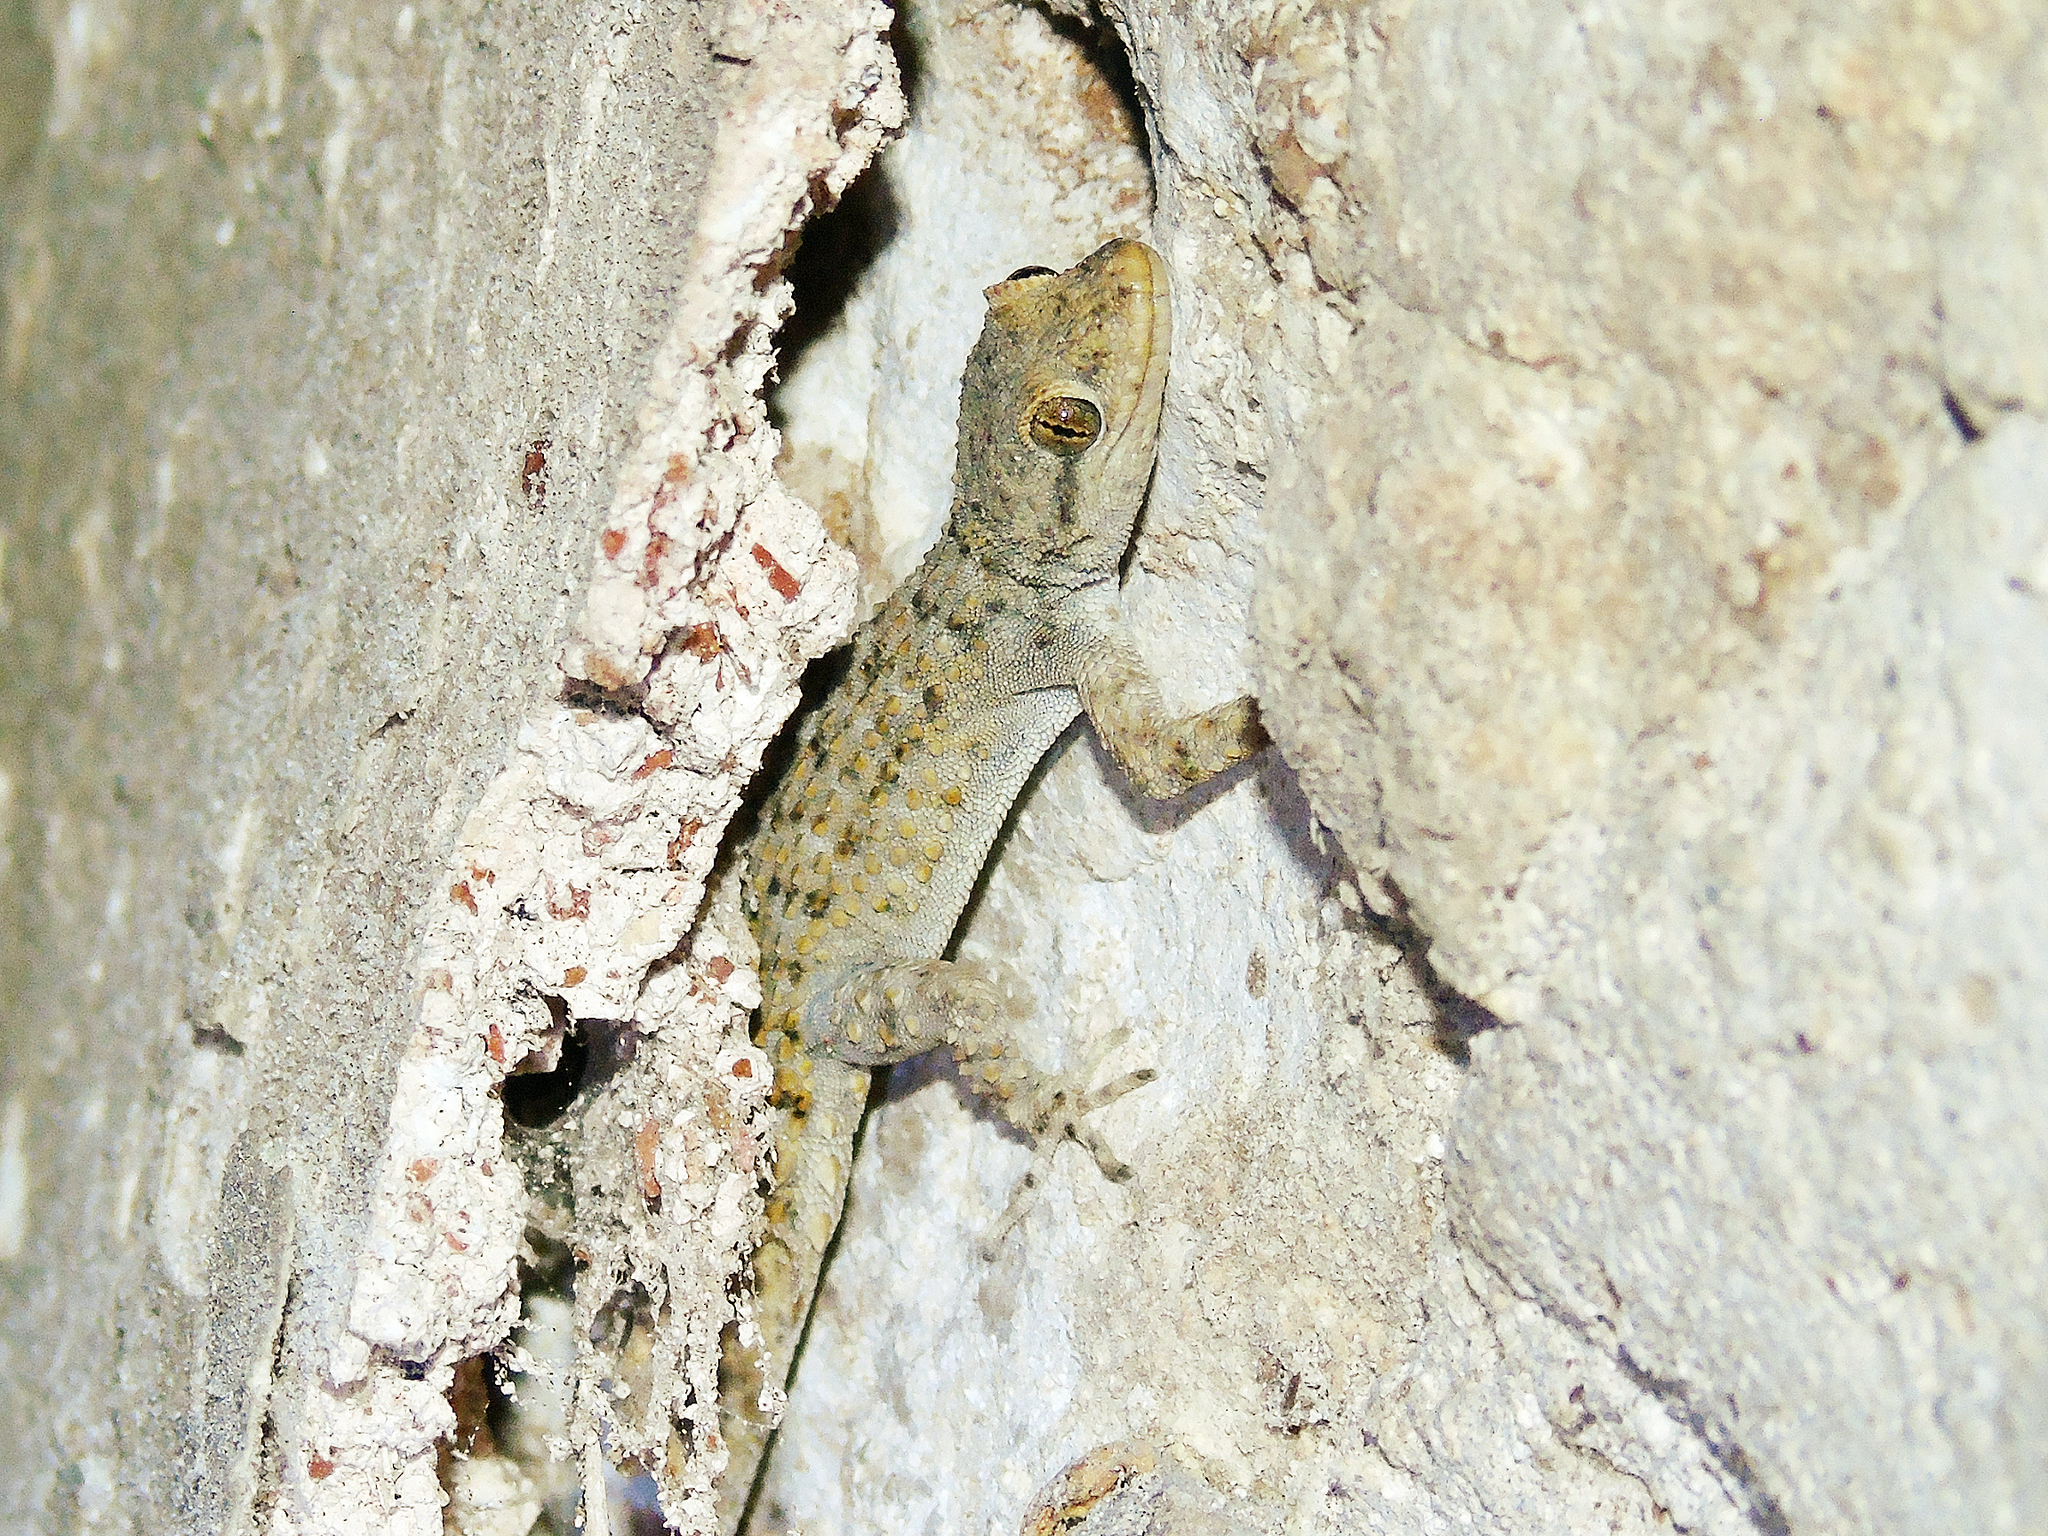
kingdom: Animalia
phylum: Chordata
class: Squamata
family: Gekkonidae
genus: Mediodactylus
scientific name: Mediodactylus kotschyi
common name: Kotschy's gecko
